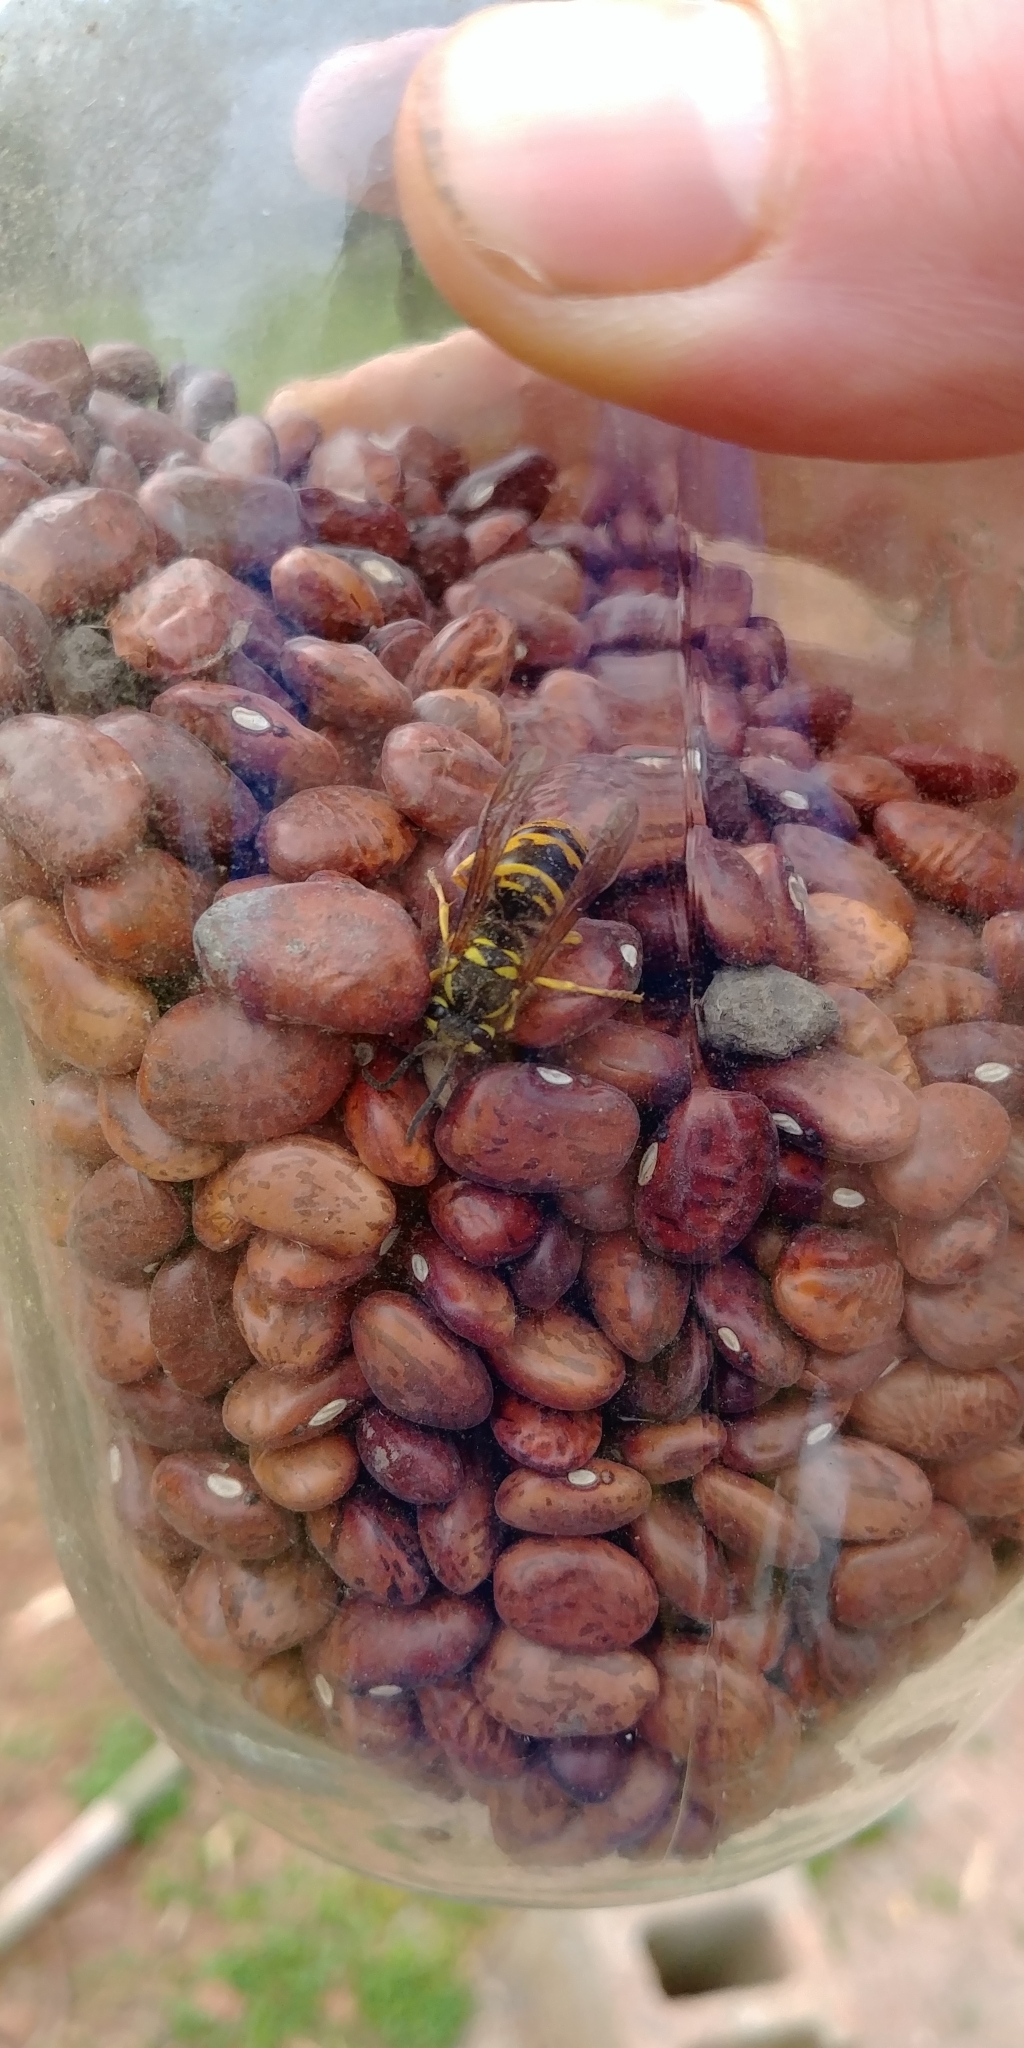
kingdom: Animalia
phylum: Arthropoda
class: Insecta
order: Hymenoptera
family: Vespidae
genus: Vespula
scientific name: Vespula maculifrons
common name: Eastern yellowjacket
